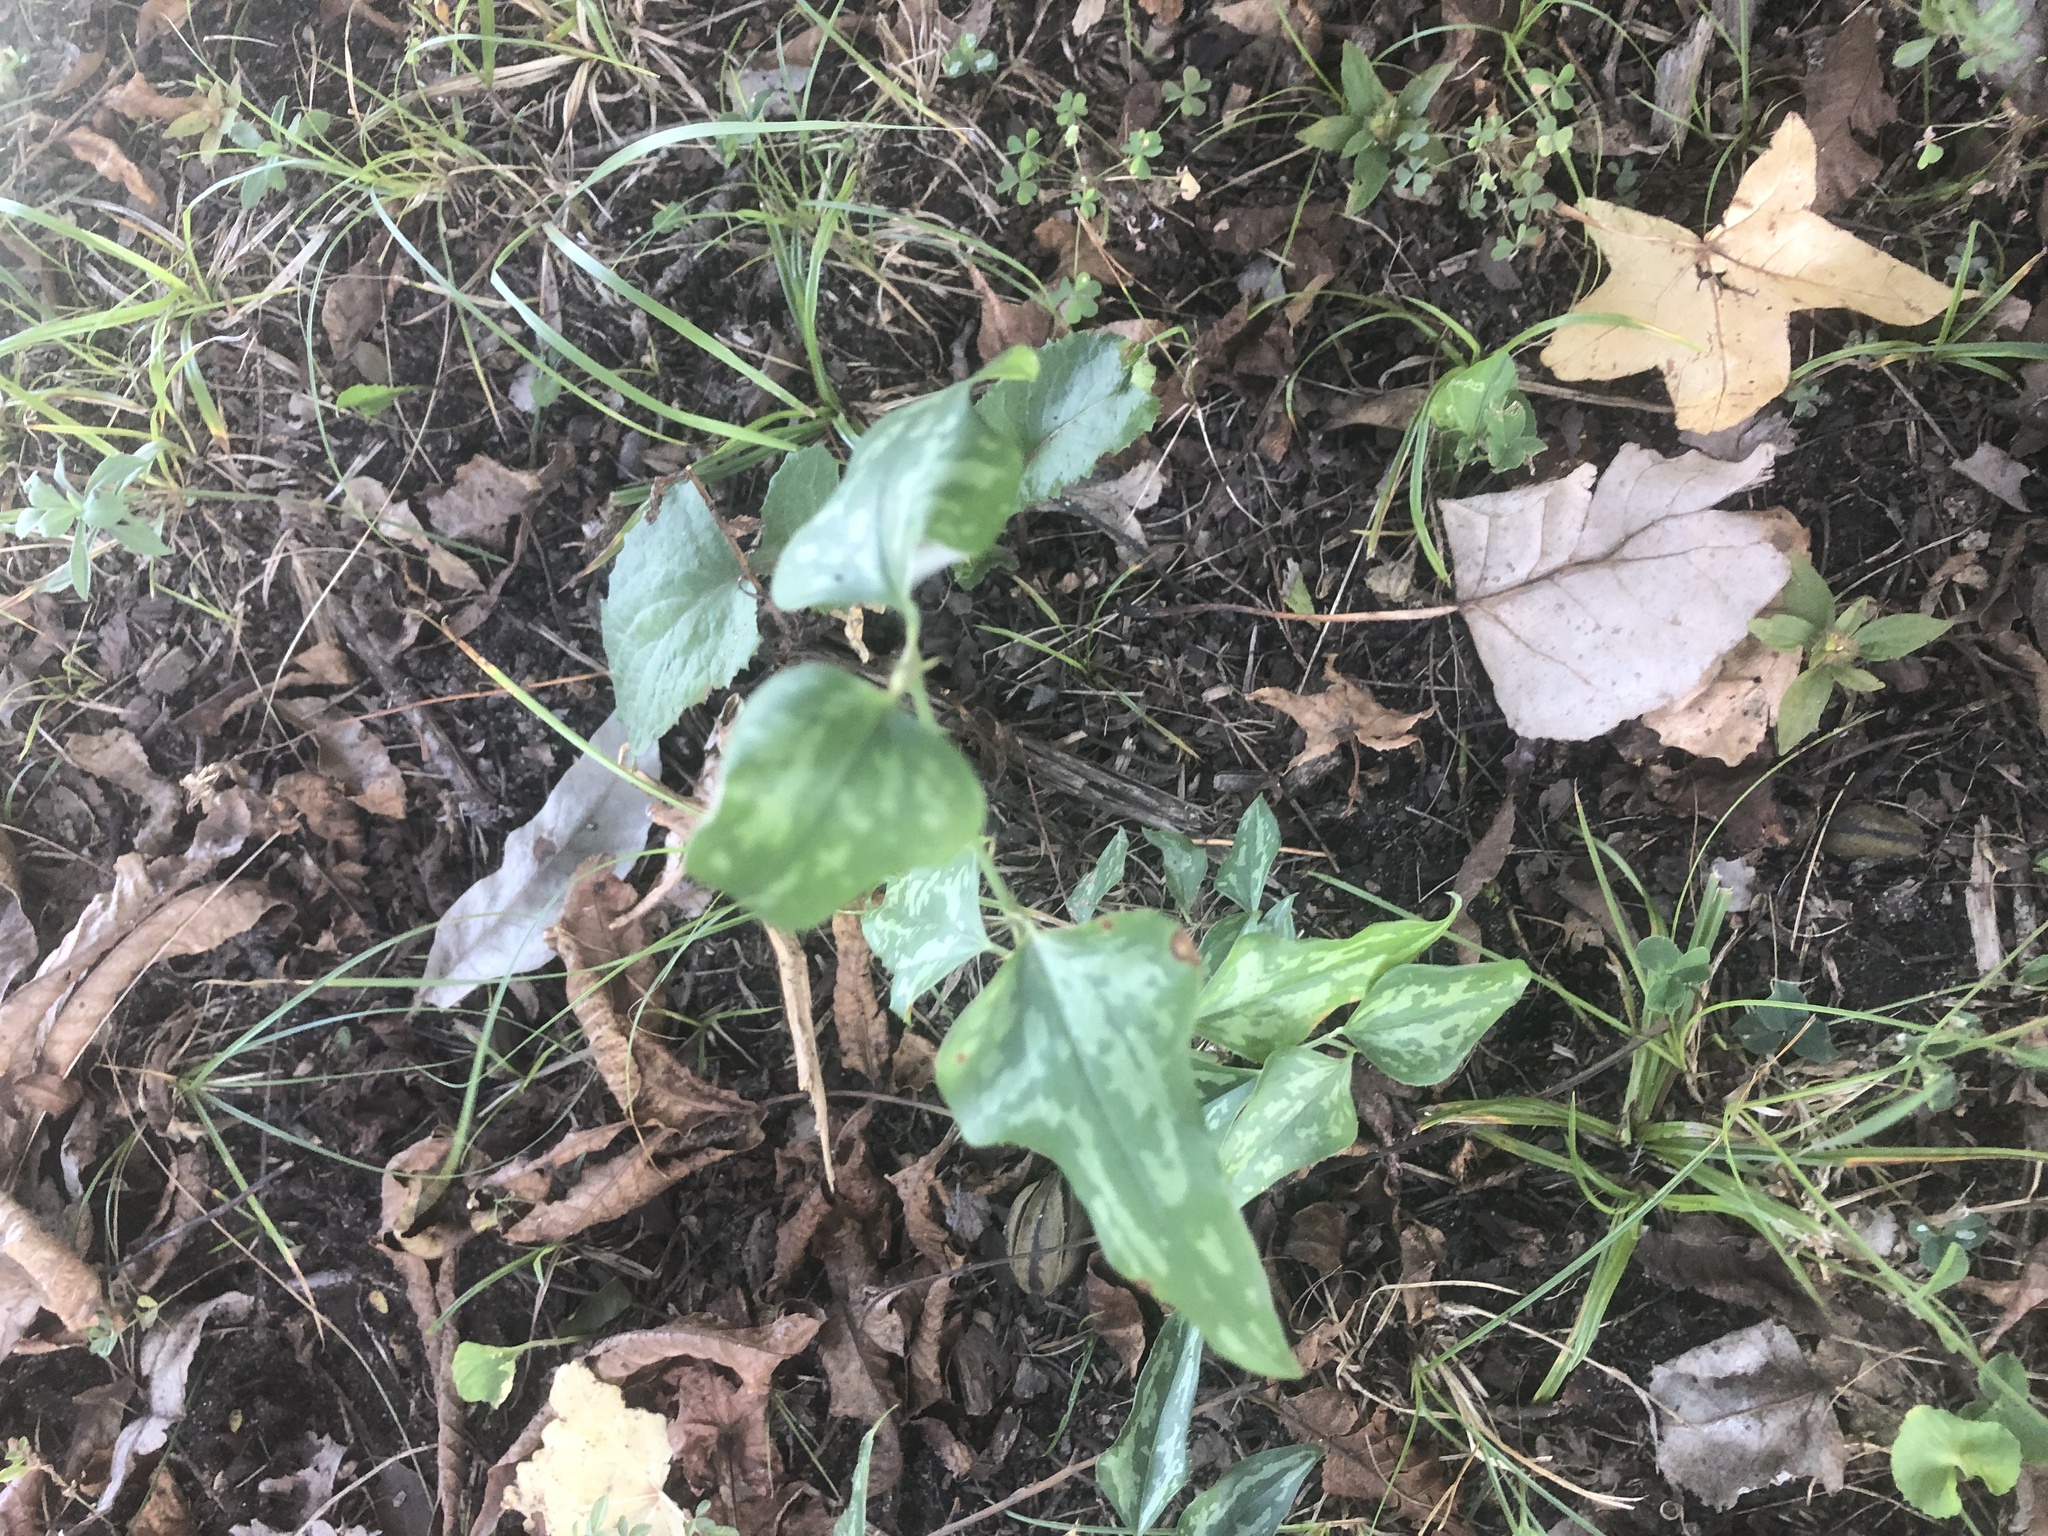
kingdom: Plantae
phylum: Tracheophyta
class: Liliopsida
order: Liliales
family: Smilacaceae
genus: Smilax
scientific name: Smilax bona-nox
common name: Catbrier
